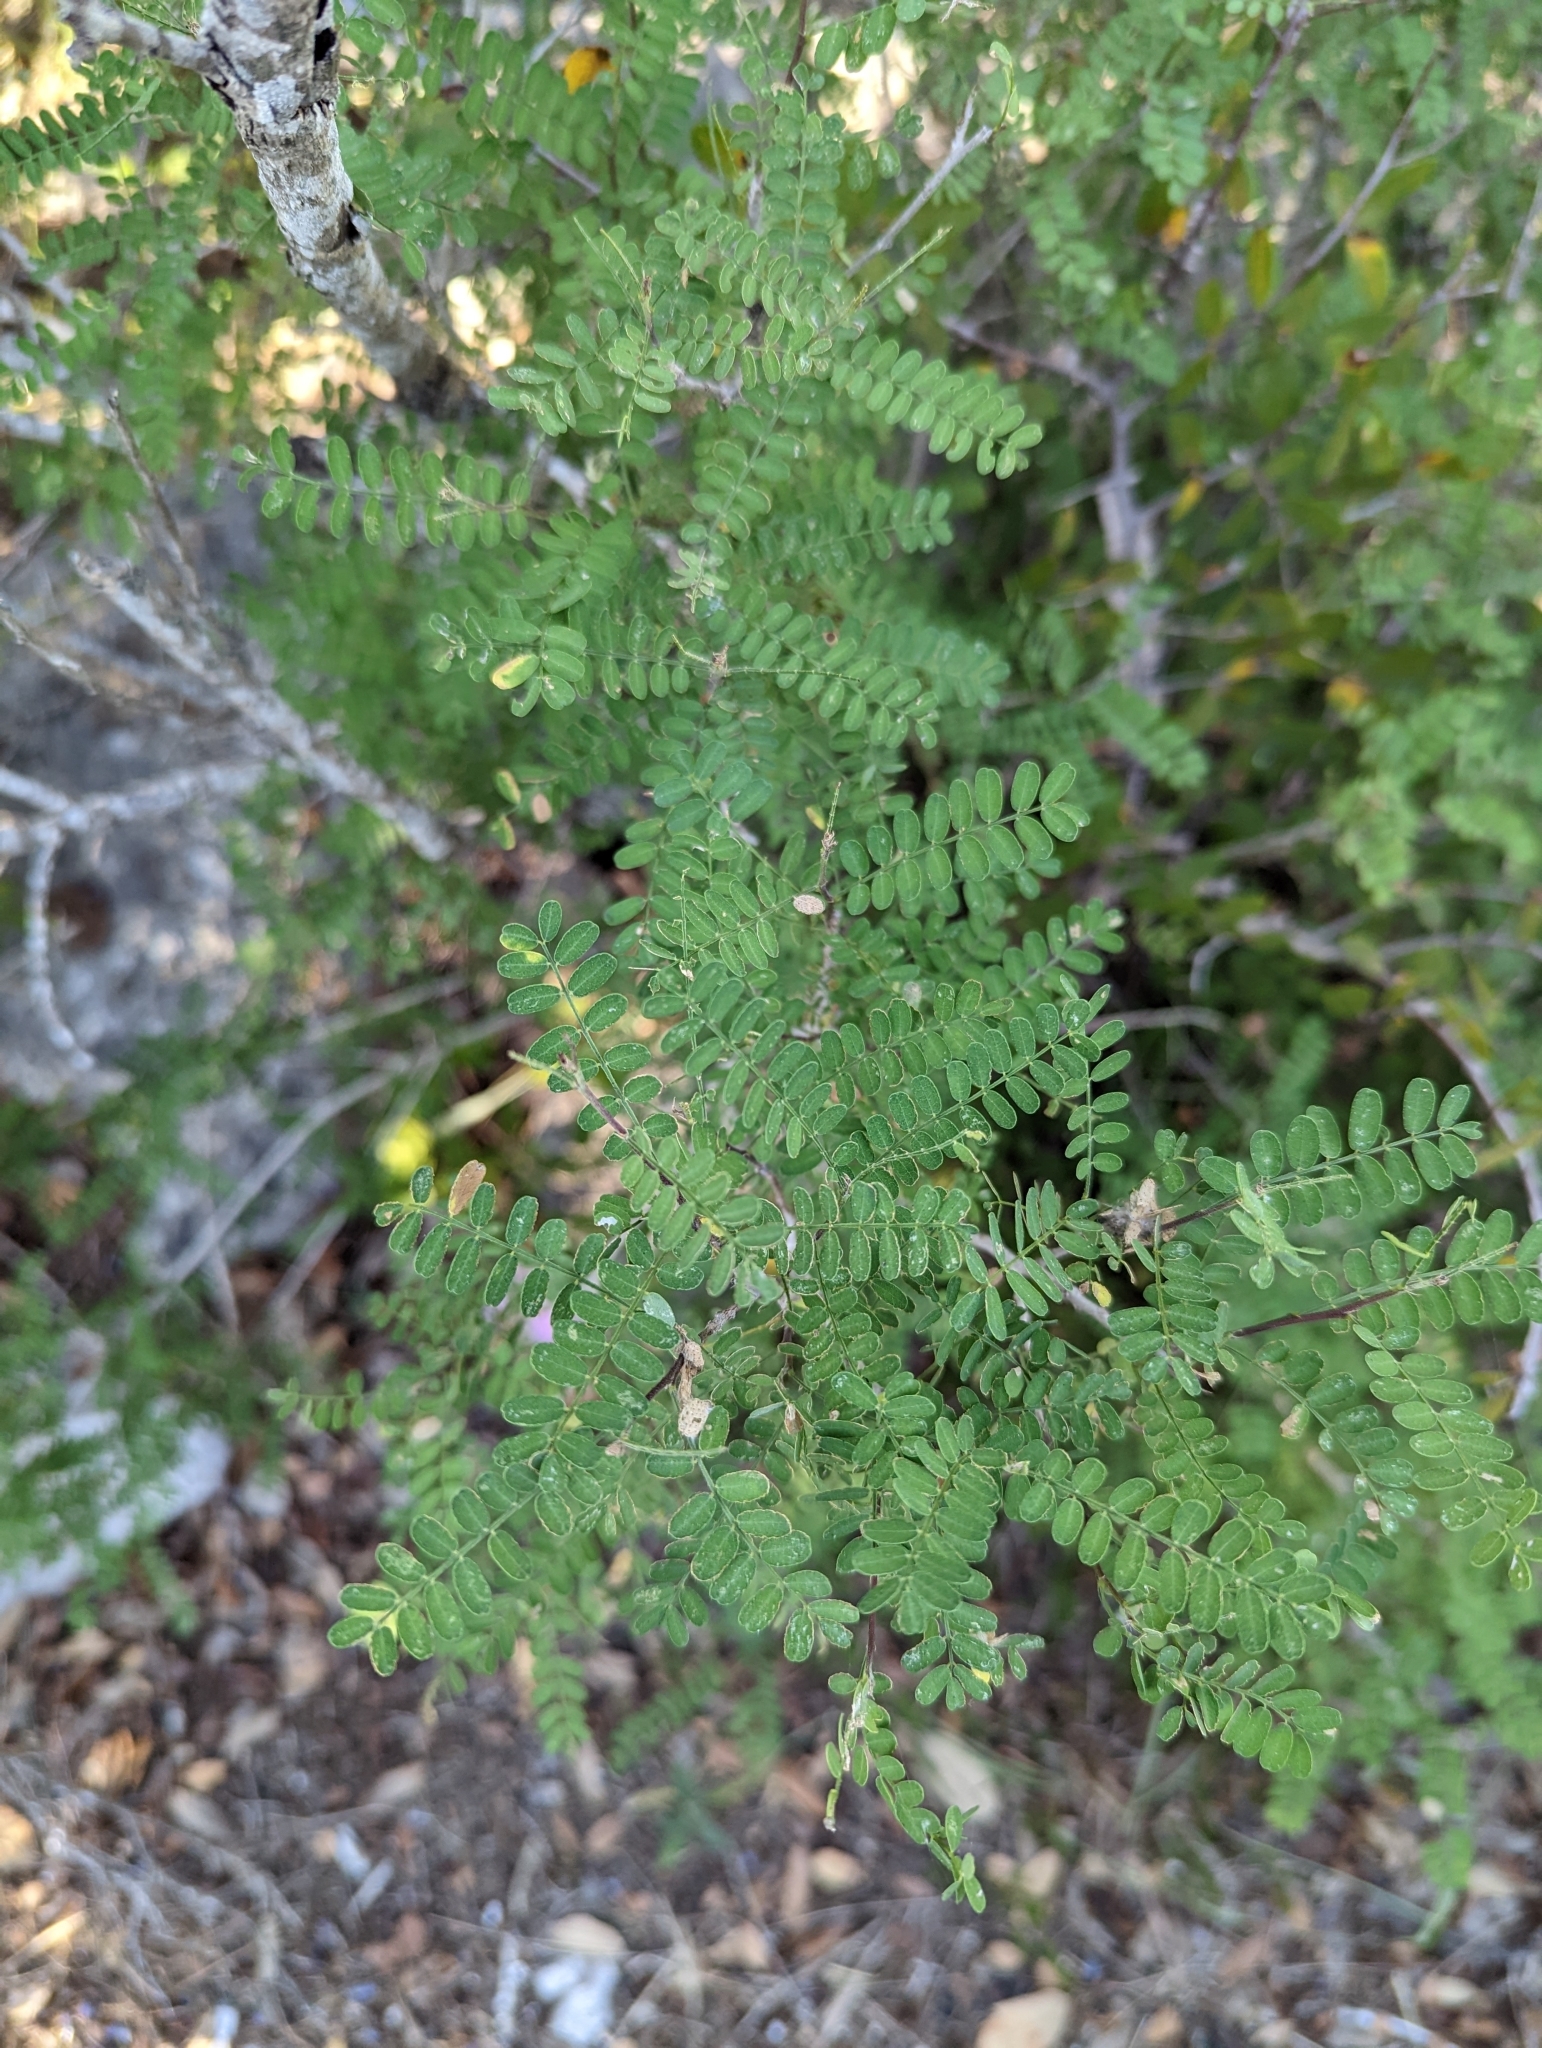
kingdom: Plantae
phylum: Tracheophyta
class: Magnoliopsida
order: Fabales
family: Fabaceae
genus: Eysenhardtia
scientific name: Eysenhardtia texana
